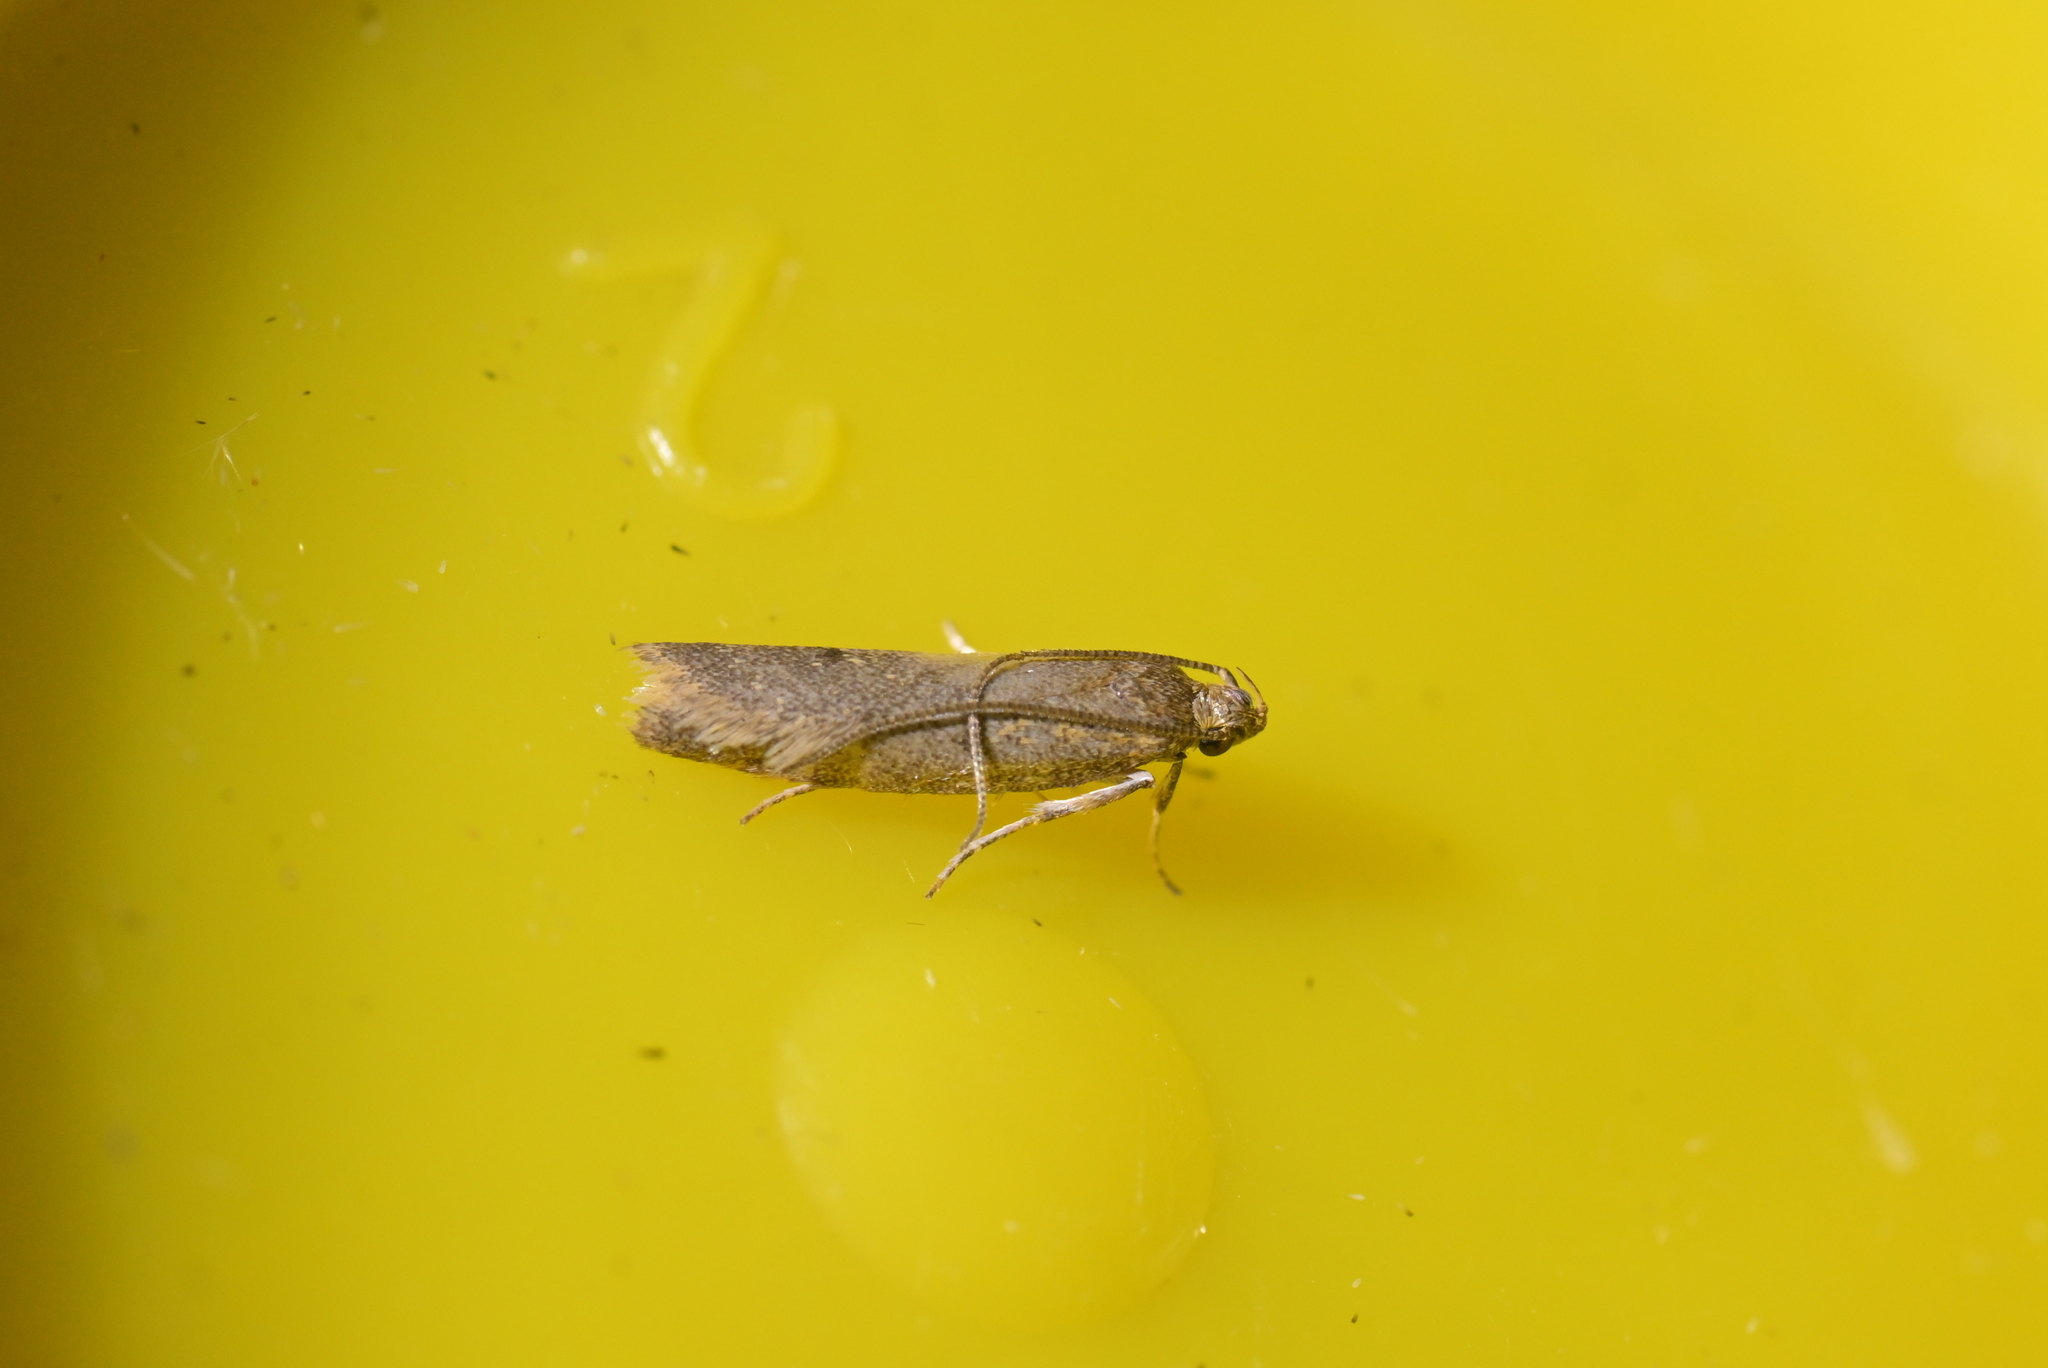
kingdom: Animalia
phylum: Arthropoda
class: Insecta
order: Lepidoptera
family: Oecophoridae
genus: Gymnobathra
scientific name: Gymnobathra tholodella
